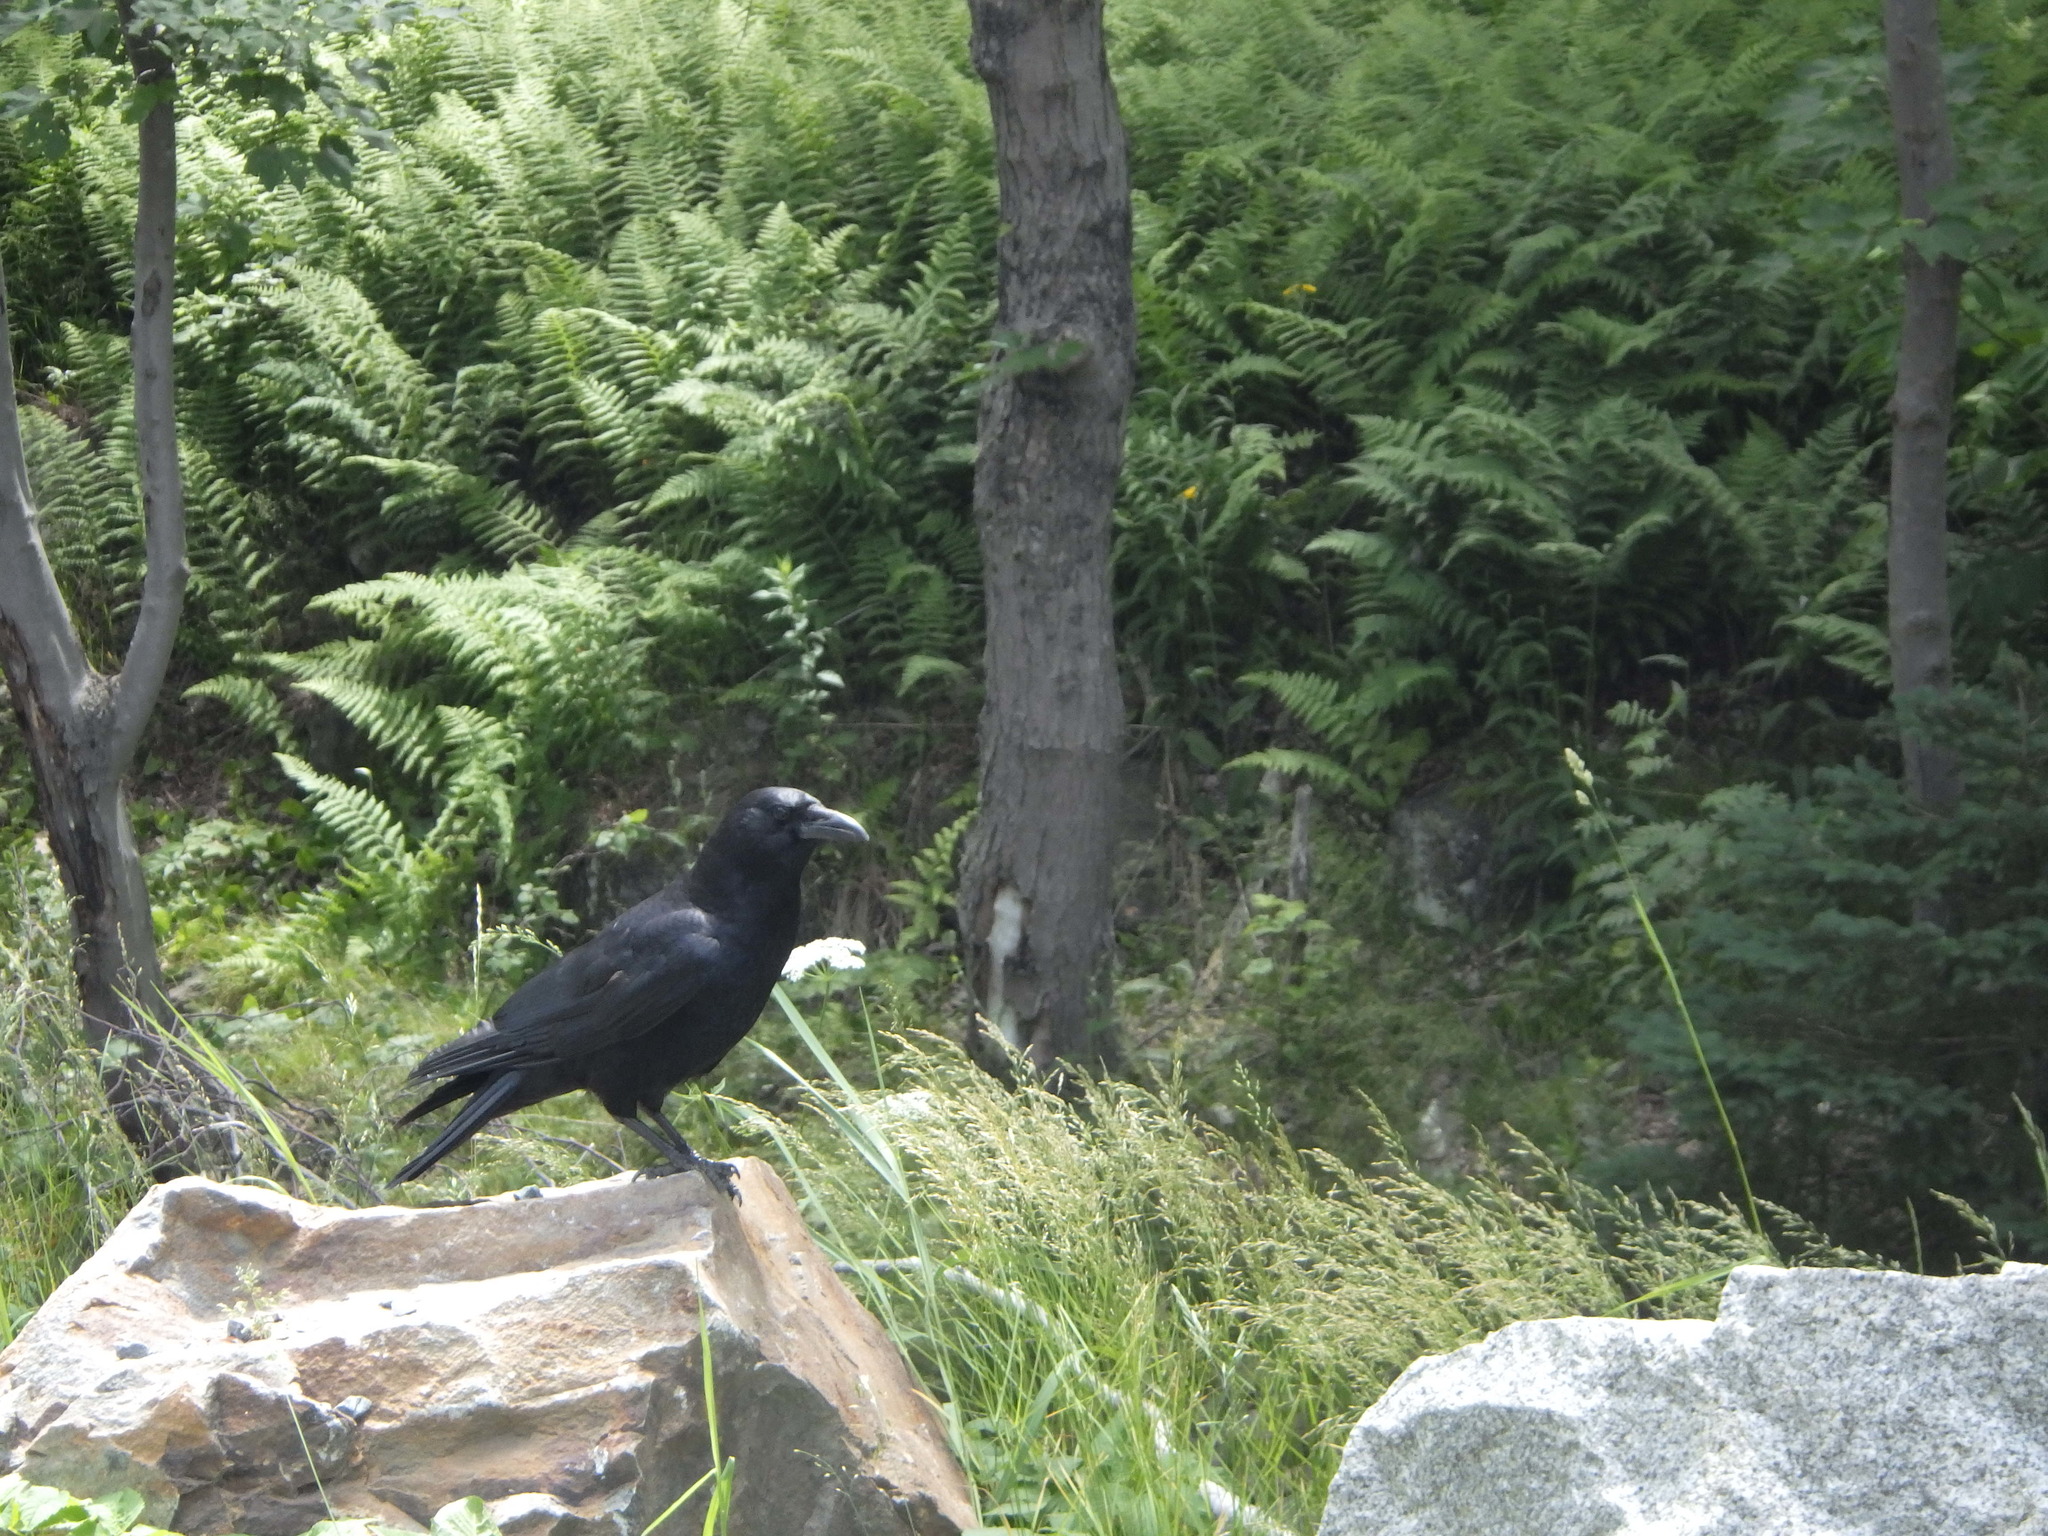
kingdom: Animalia
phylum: Chordata
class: Aves
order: Passeriformes
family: Corvidae
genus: Corvus
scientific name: Corvus brachyrhynchos
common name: American crow
